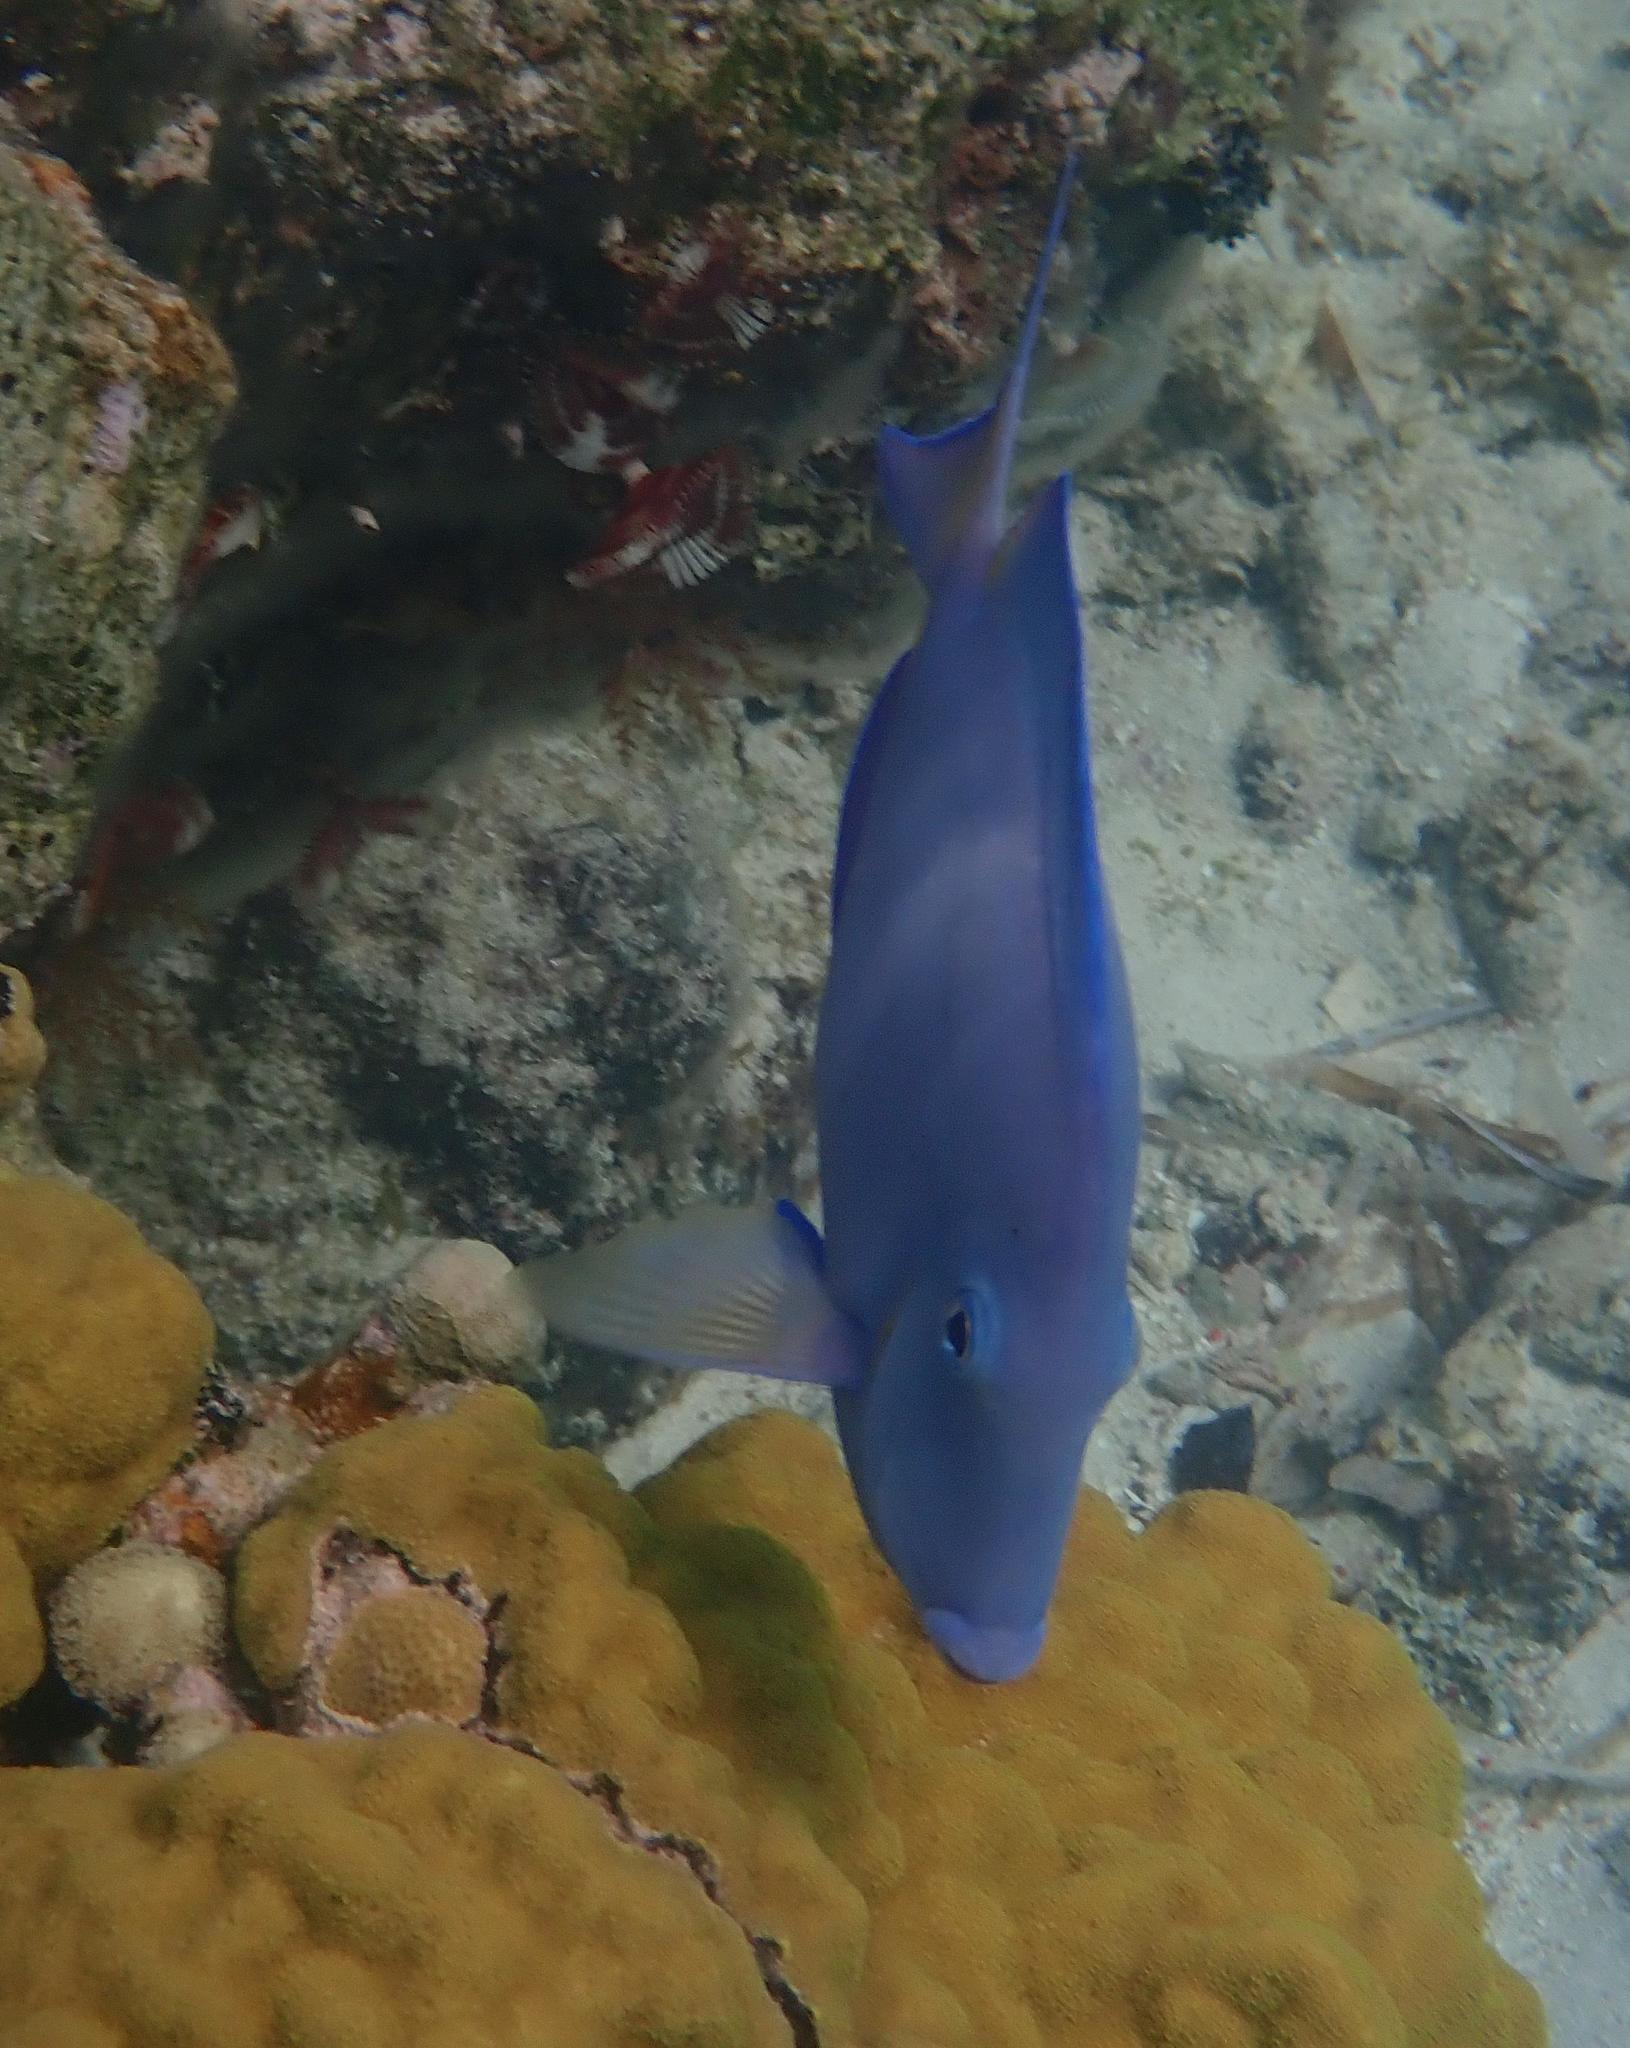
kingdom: Animalia
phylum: Chordata
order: Perciformes
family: Acanthuridae
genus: Acanthurus
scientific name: Acanthurus coeruleus
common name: Blue tang
